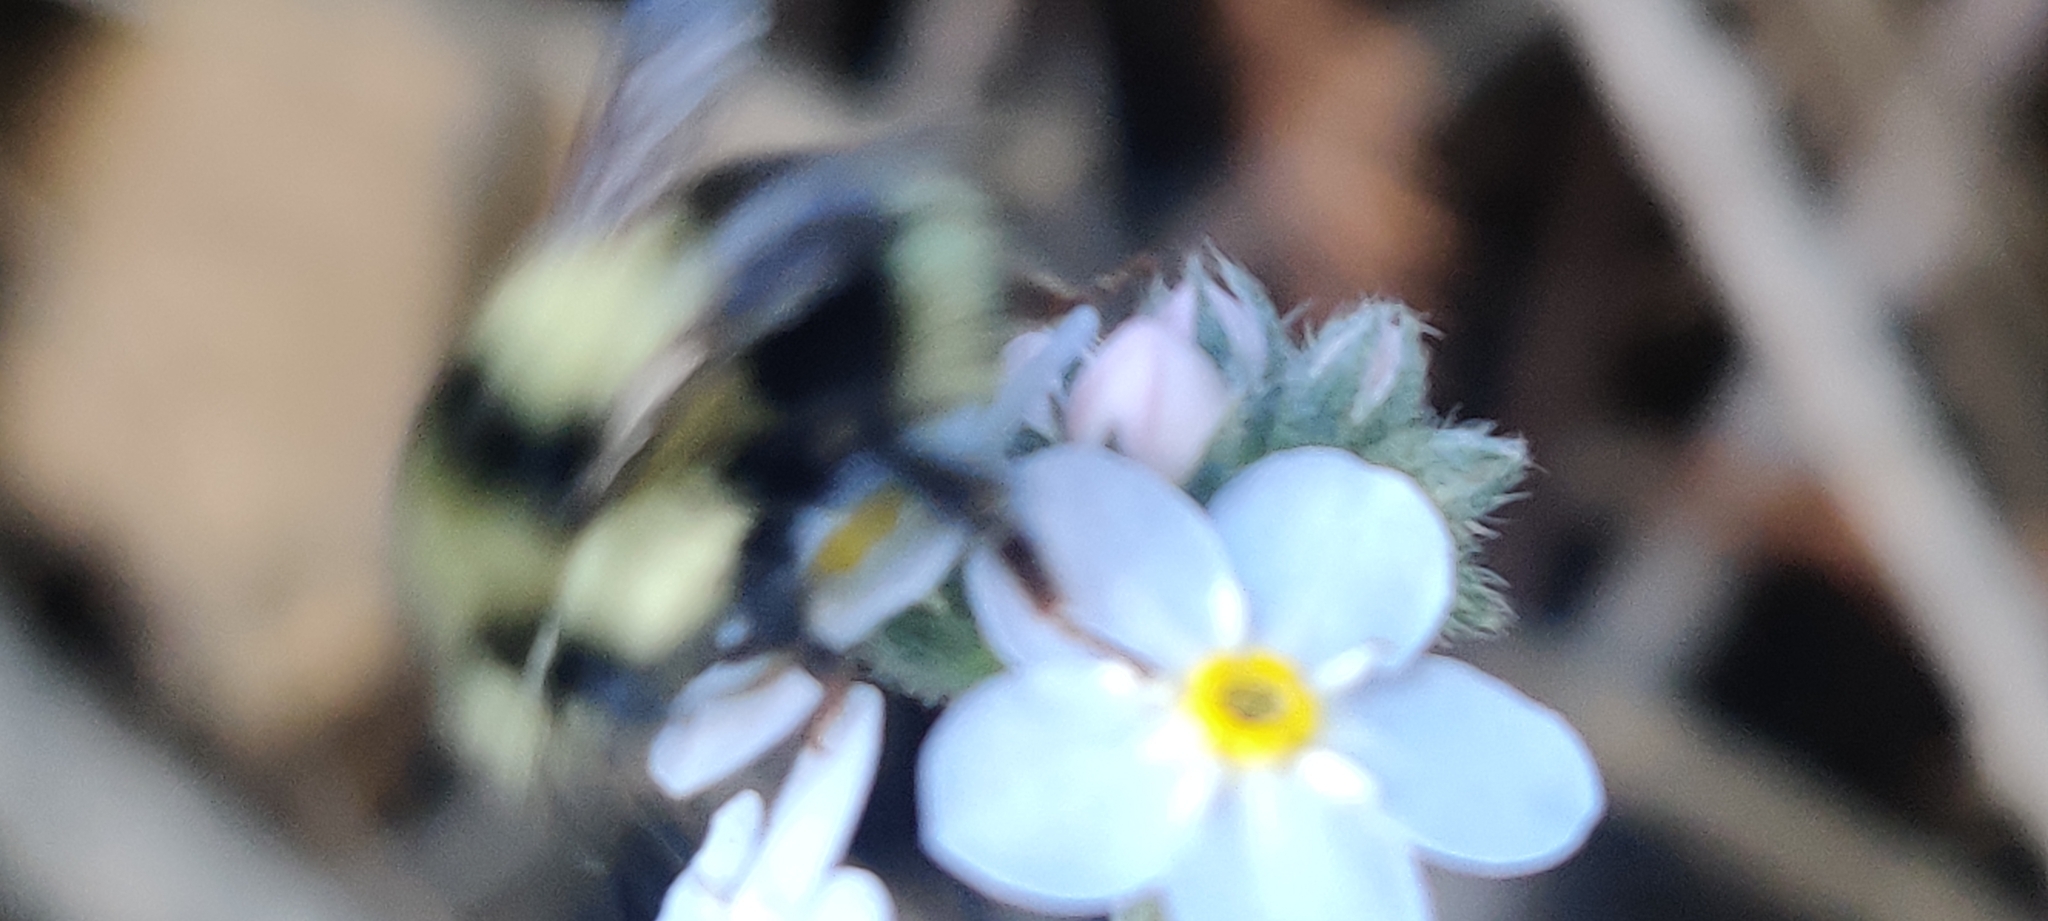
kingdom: Animalia
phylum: Arthropoda
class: Insecta
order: Hymenoptera
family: Apidae
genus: Bombus
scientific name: Bombus melanopygus
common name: Black tail bumble bee
